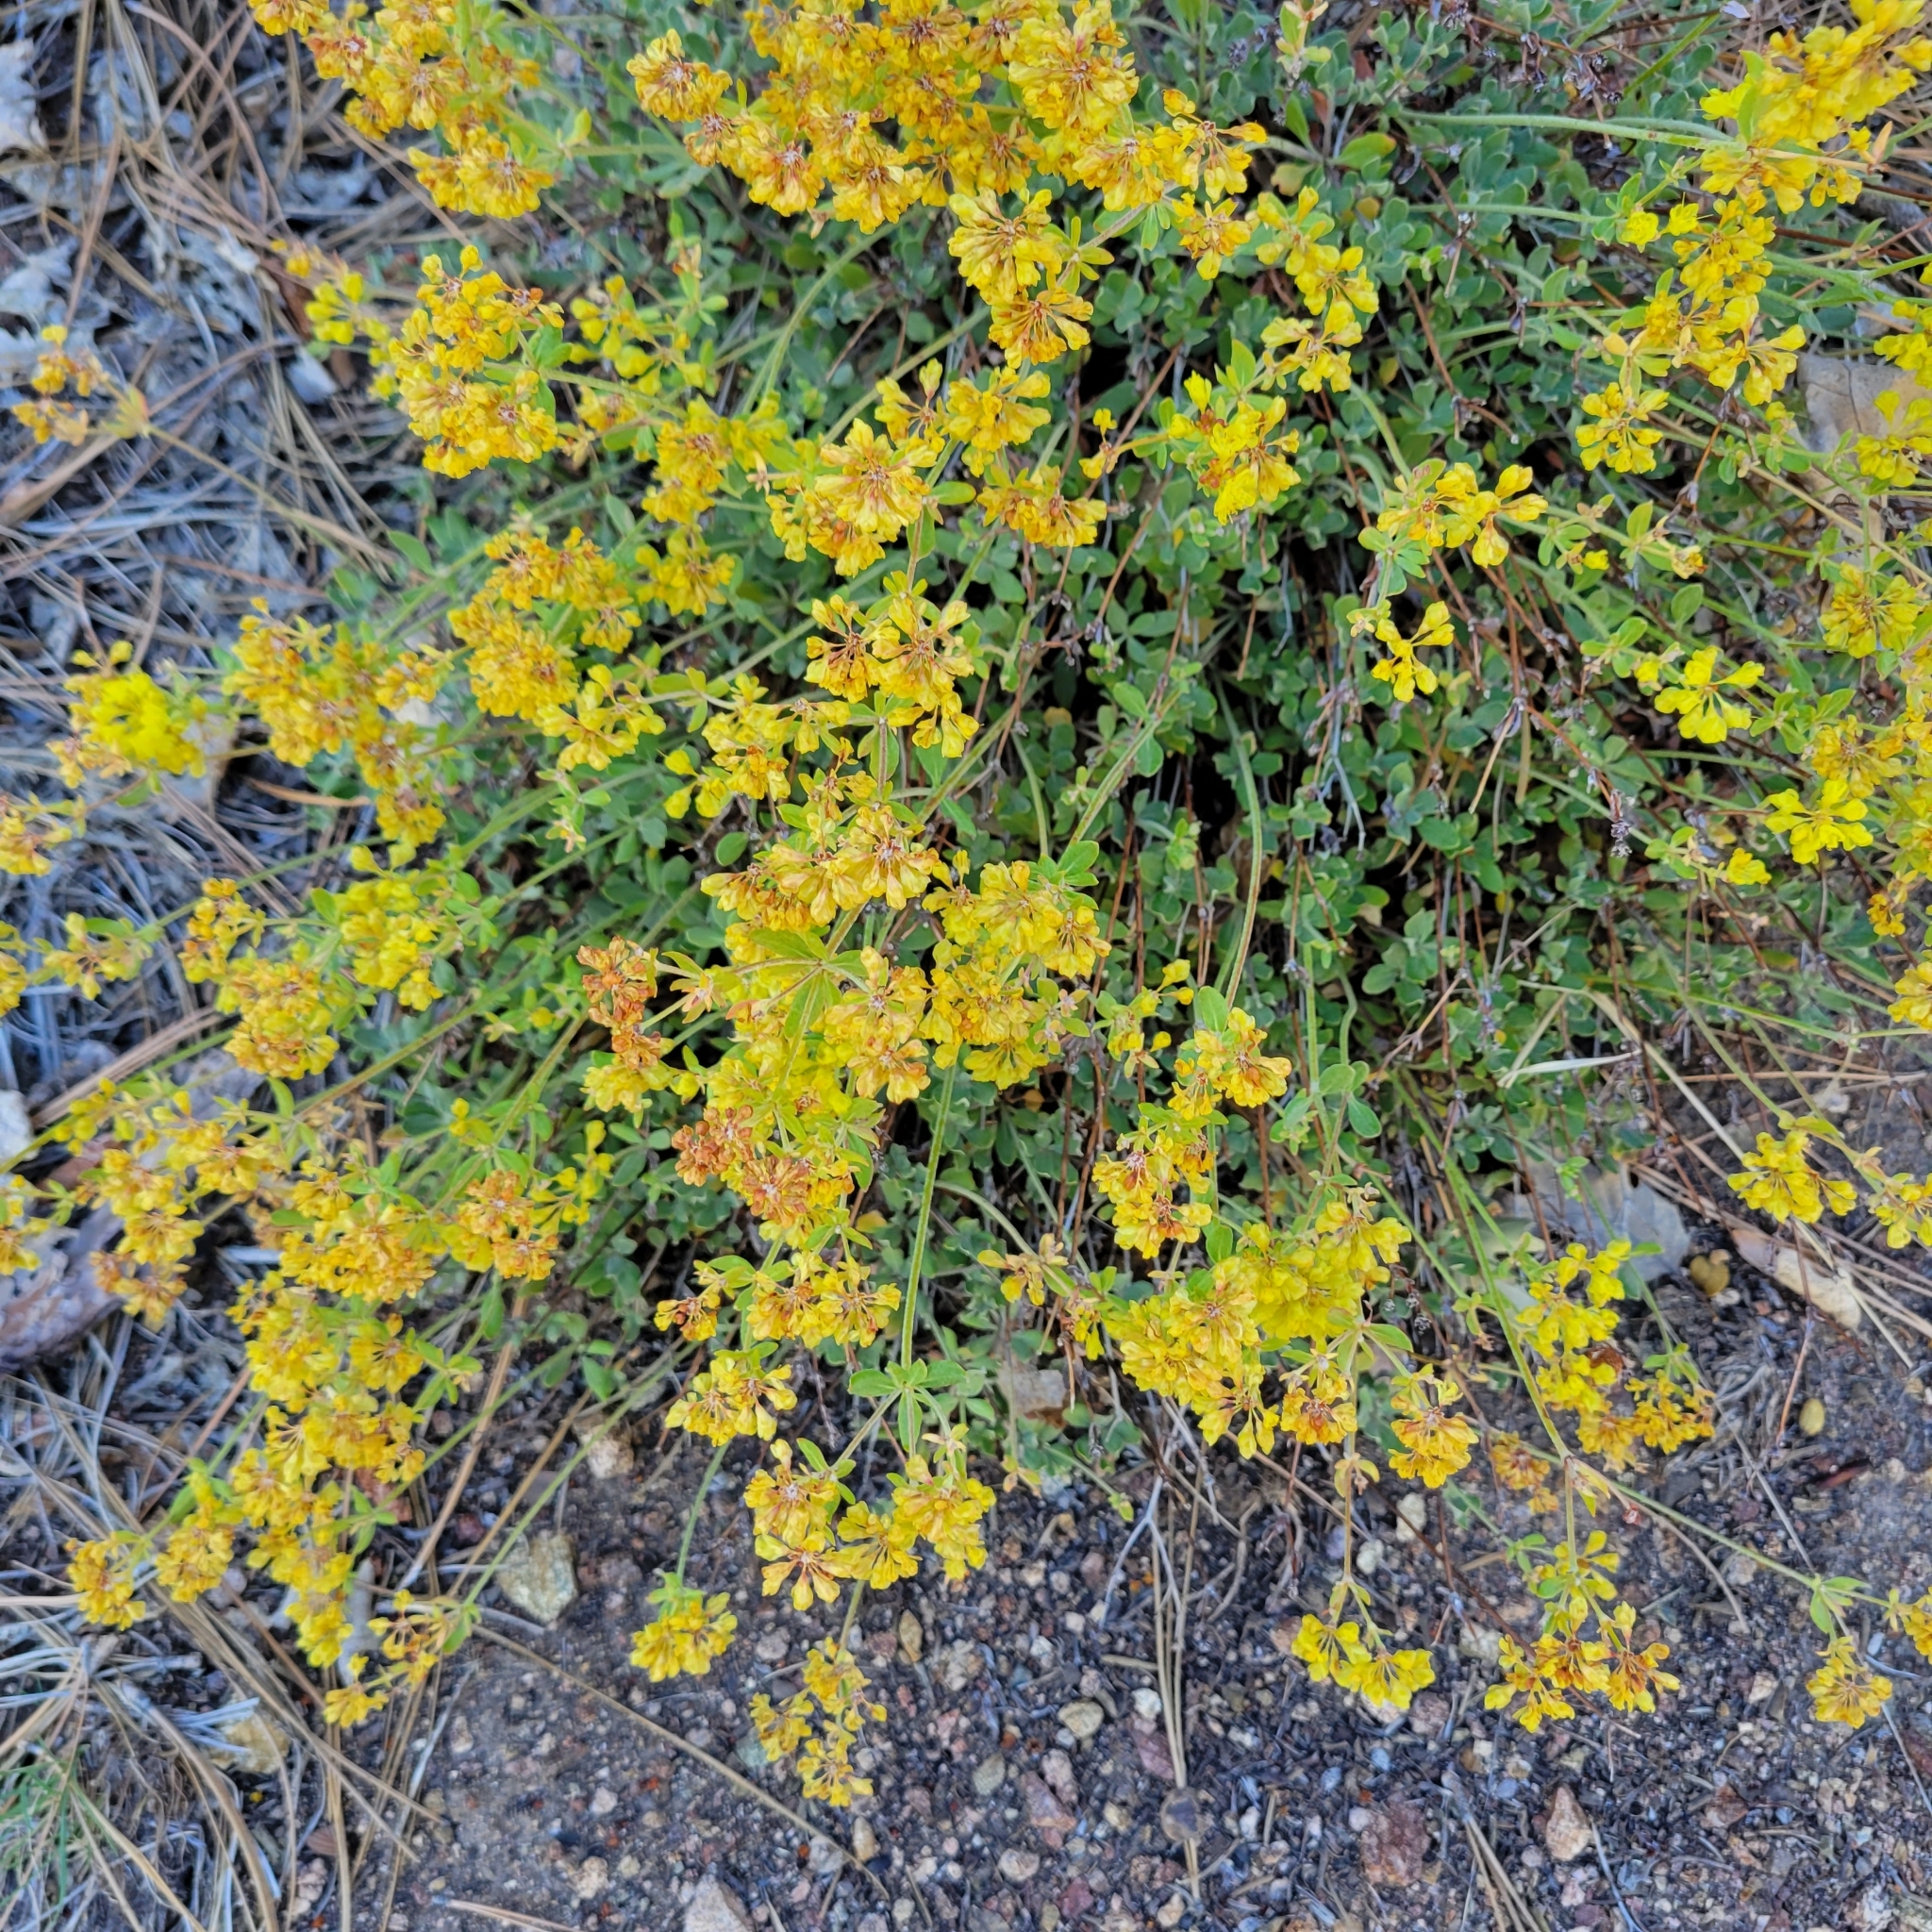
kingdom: Plantae
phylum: Tracheophyta
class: Magnoliopsida
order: Caryophyllales
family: Polygonaceae
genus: Eriogonum
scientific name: Eriogonum umbellatum
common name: Sulfur-buckwheat
